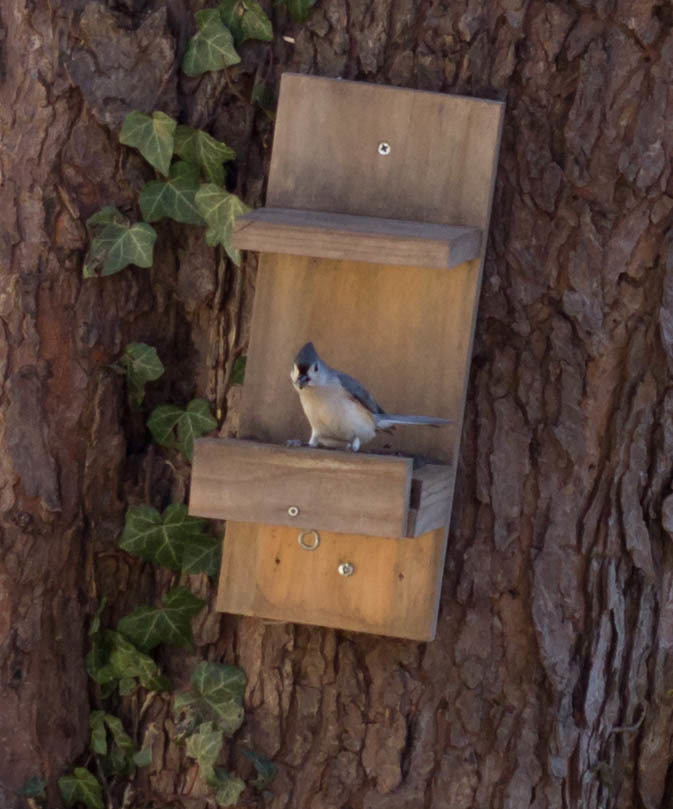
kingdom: Animalia
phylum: Chordata
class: Aves
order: Passeriformes
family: Paridae
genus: Baeolophus
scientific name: Baeolophus bicolor
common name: Tufted titmouse
